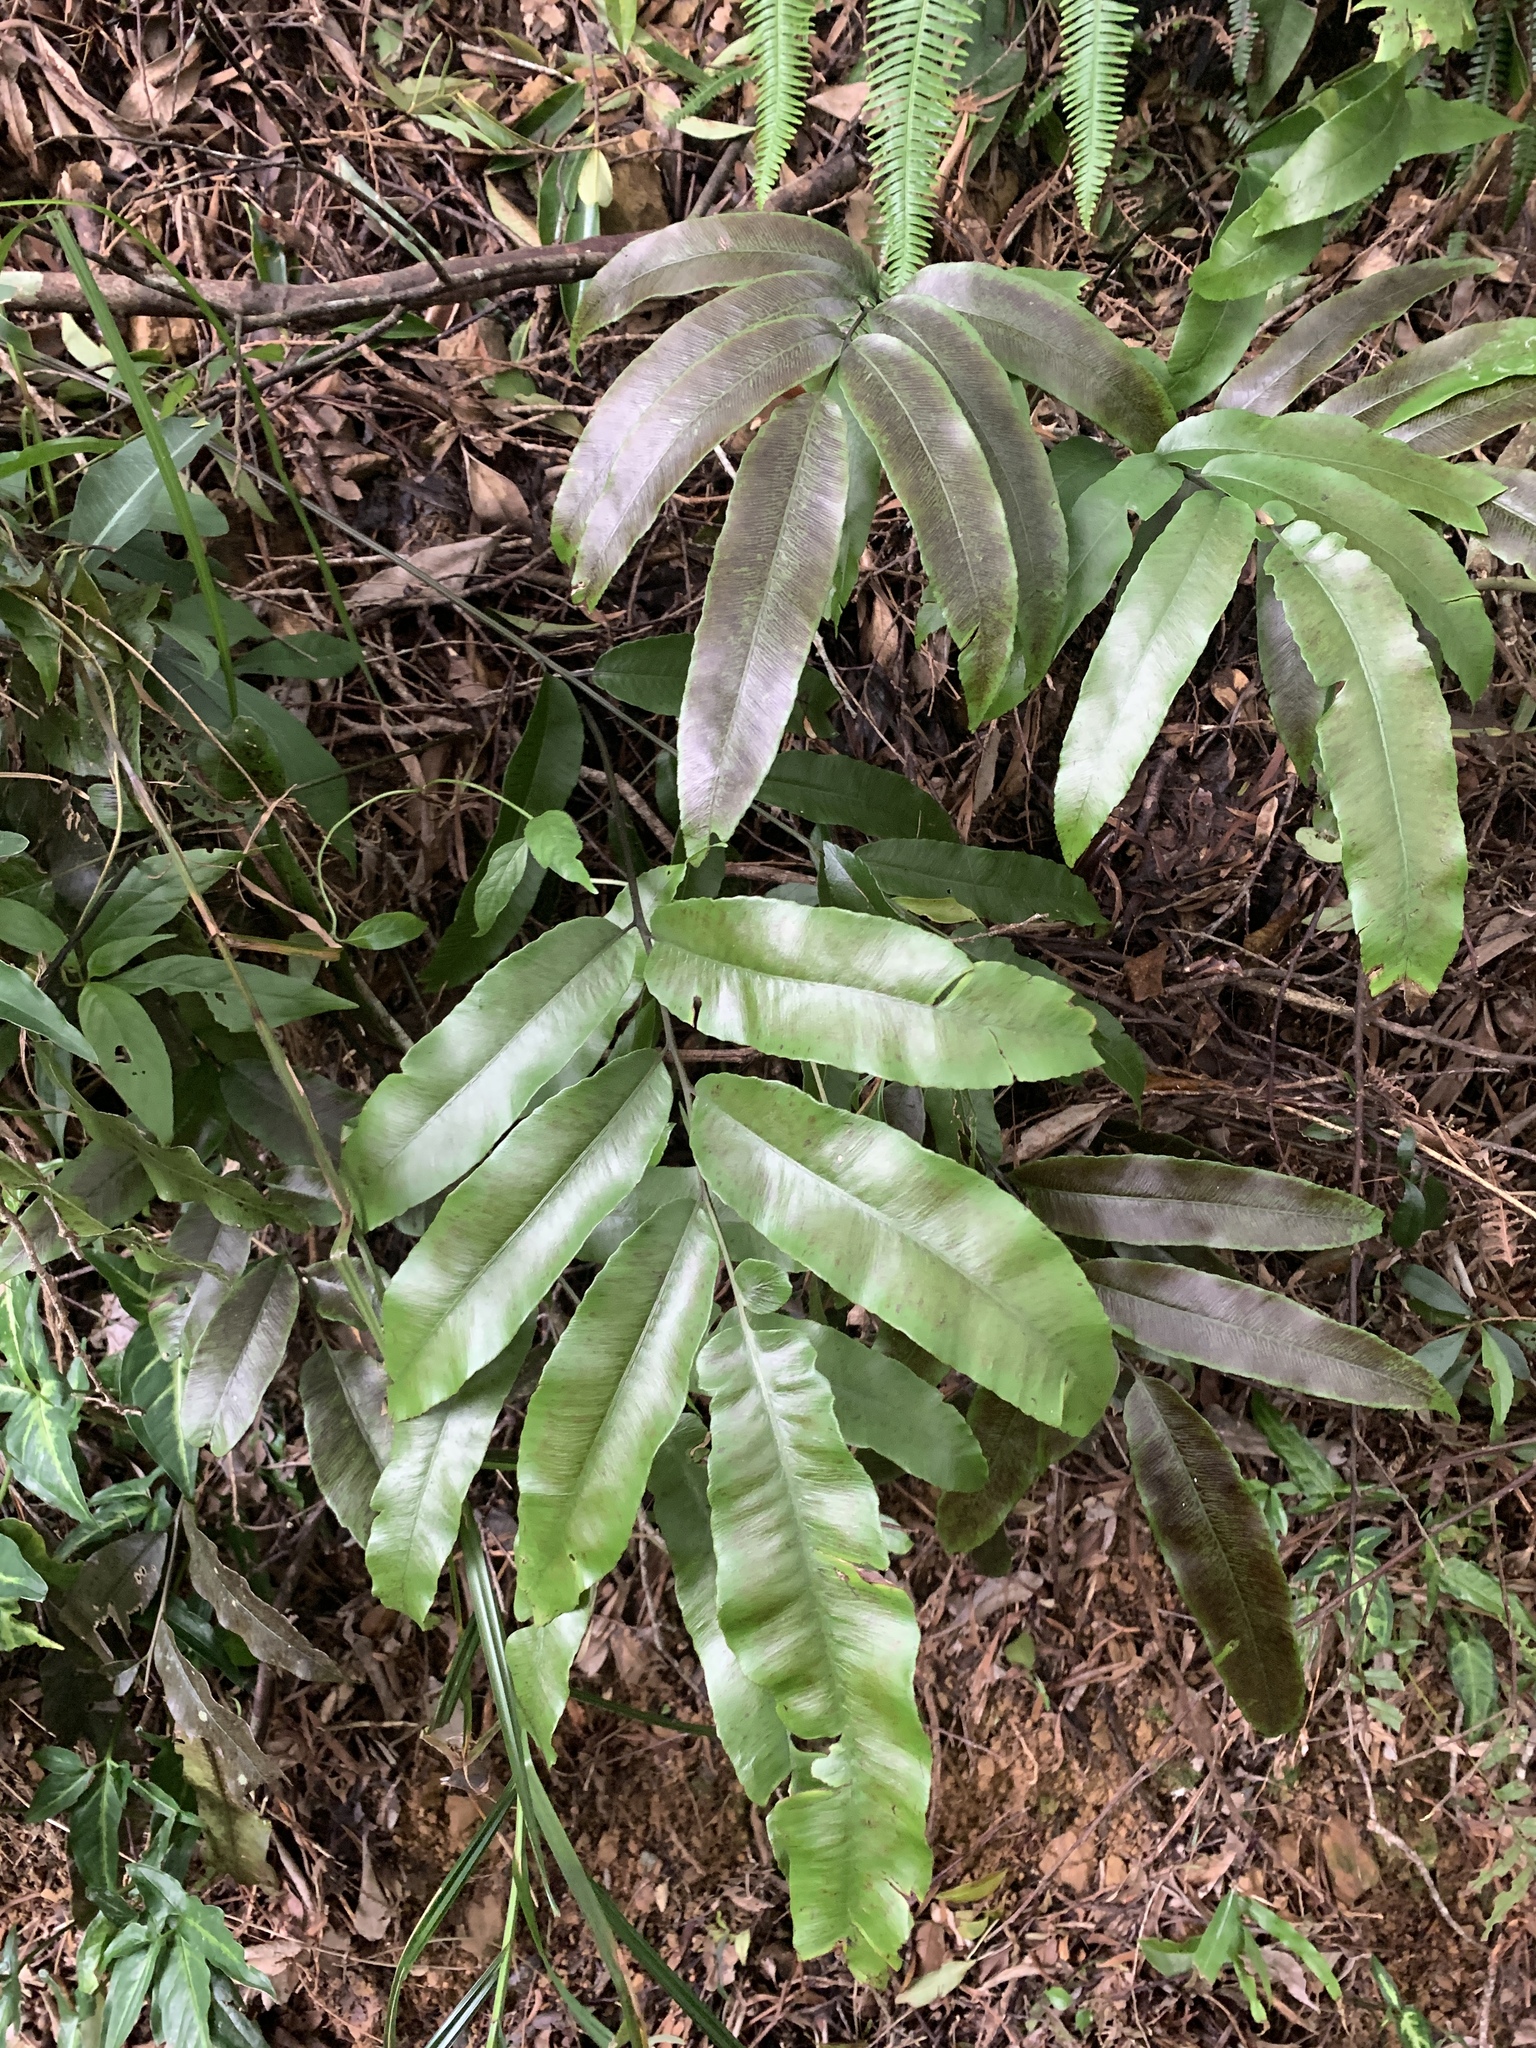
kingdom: Plantae
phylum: Tracheophyta
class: Polypodiopsida
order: Polypodiales
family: Athyriaceae
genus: Diplazium
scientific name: Diplazium lobatum
